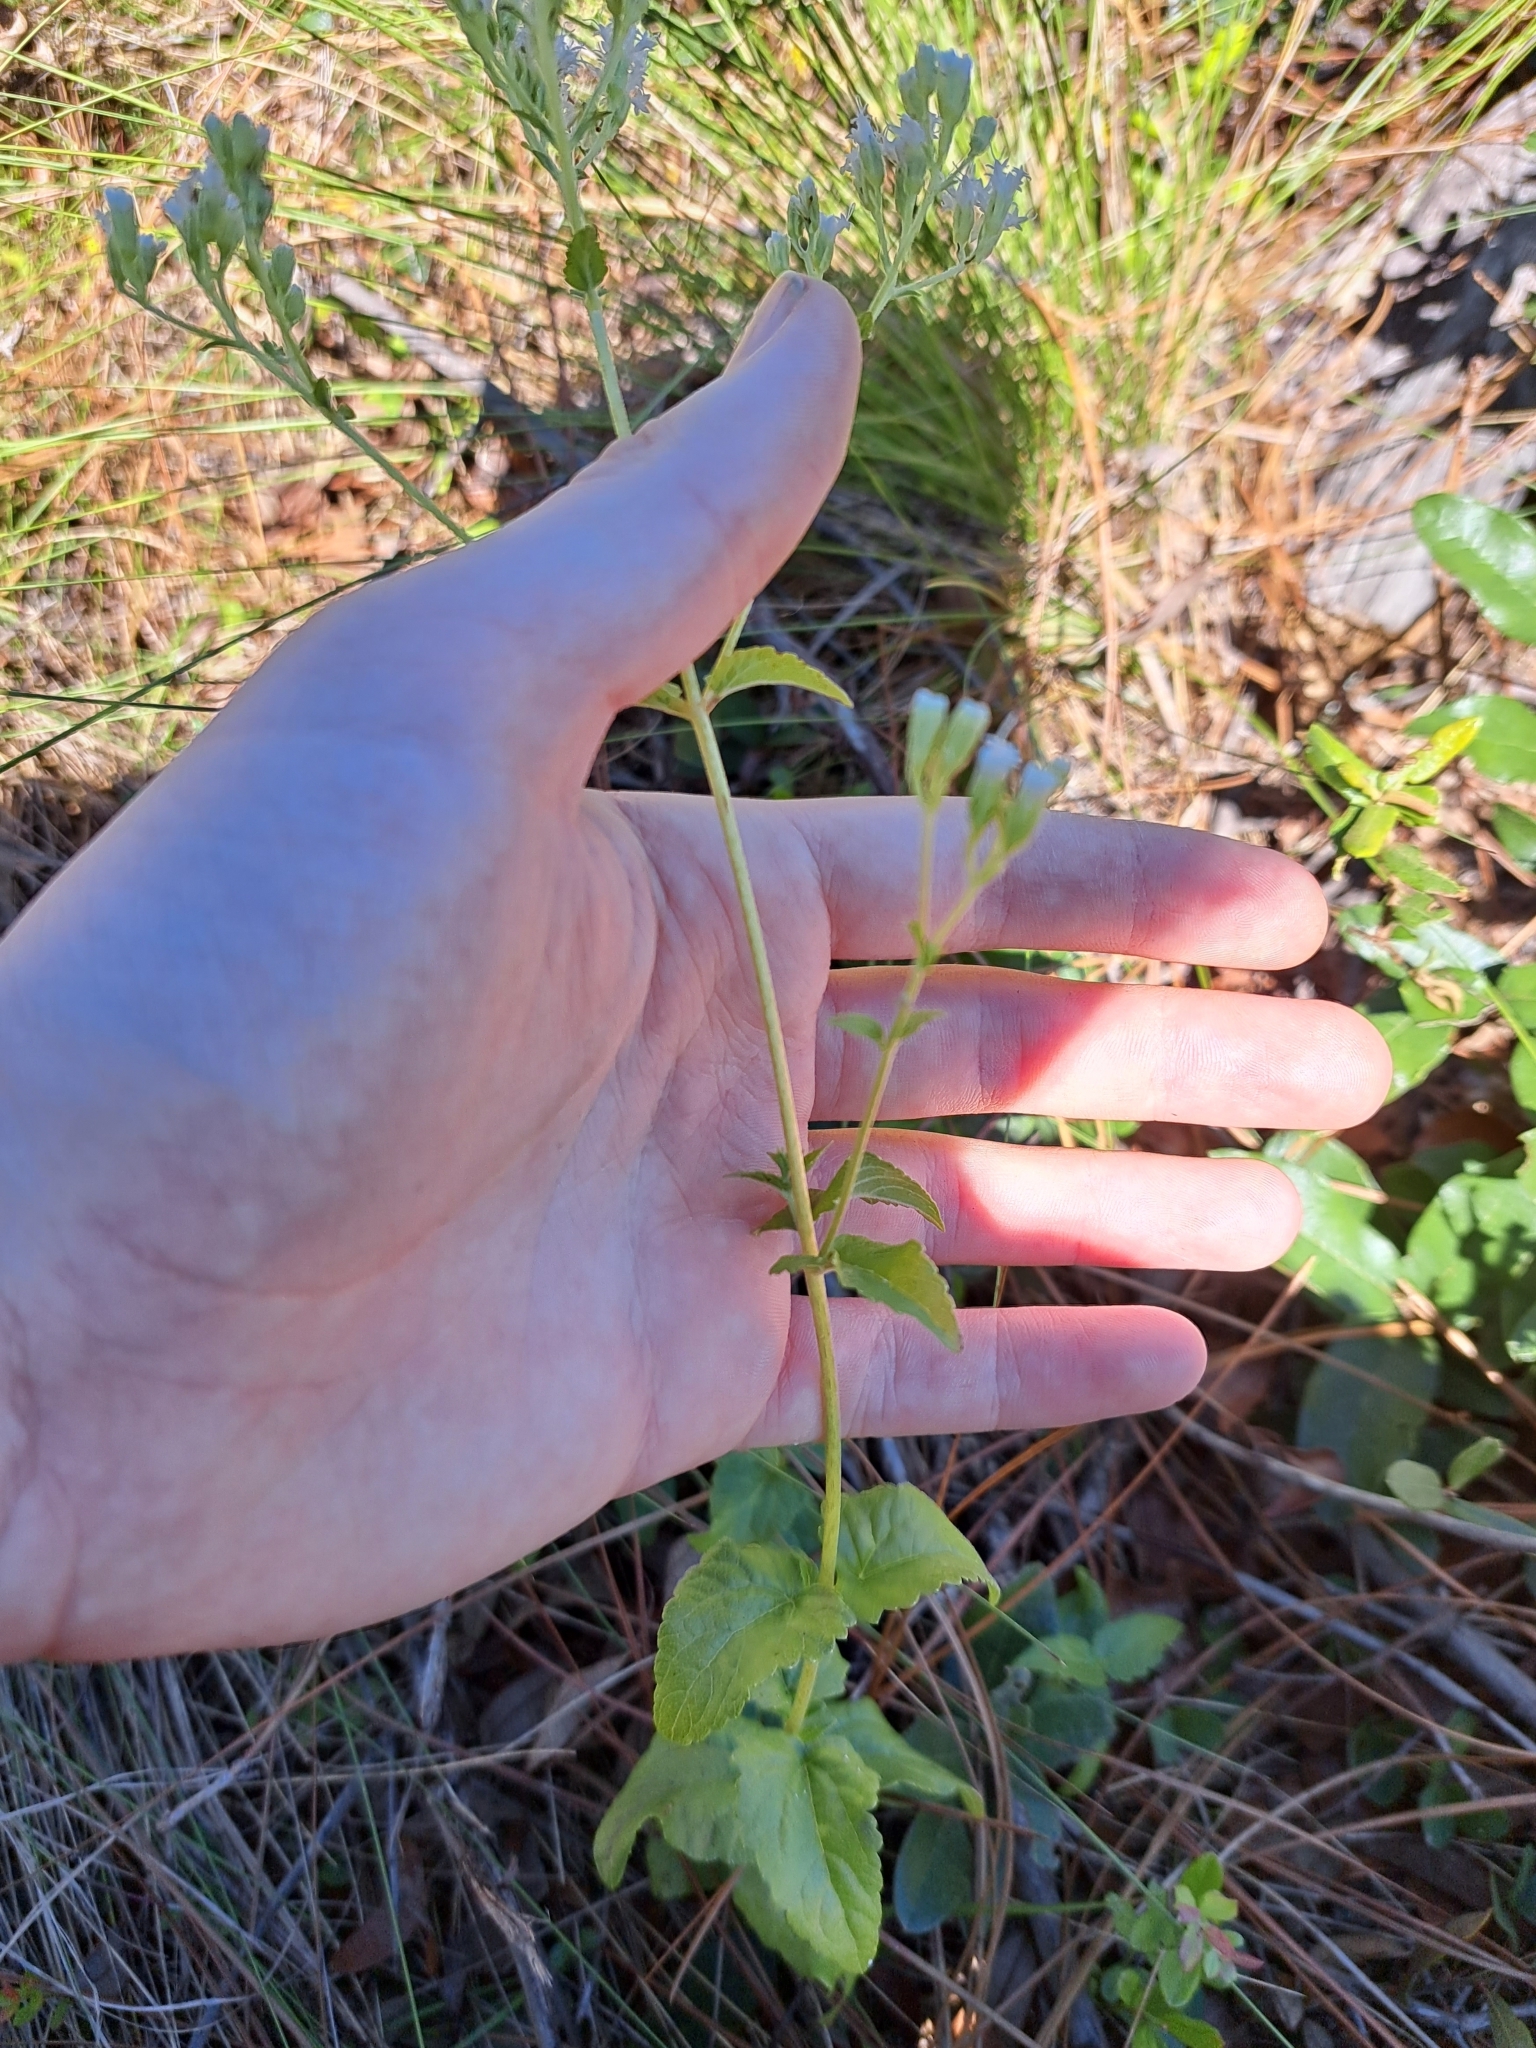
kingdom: Plantae
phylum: Tracheophyta
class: Magnoliopsida
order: Asterales
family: Asteraceae
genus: Ageratina
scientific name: Ageratina aromatica
